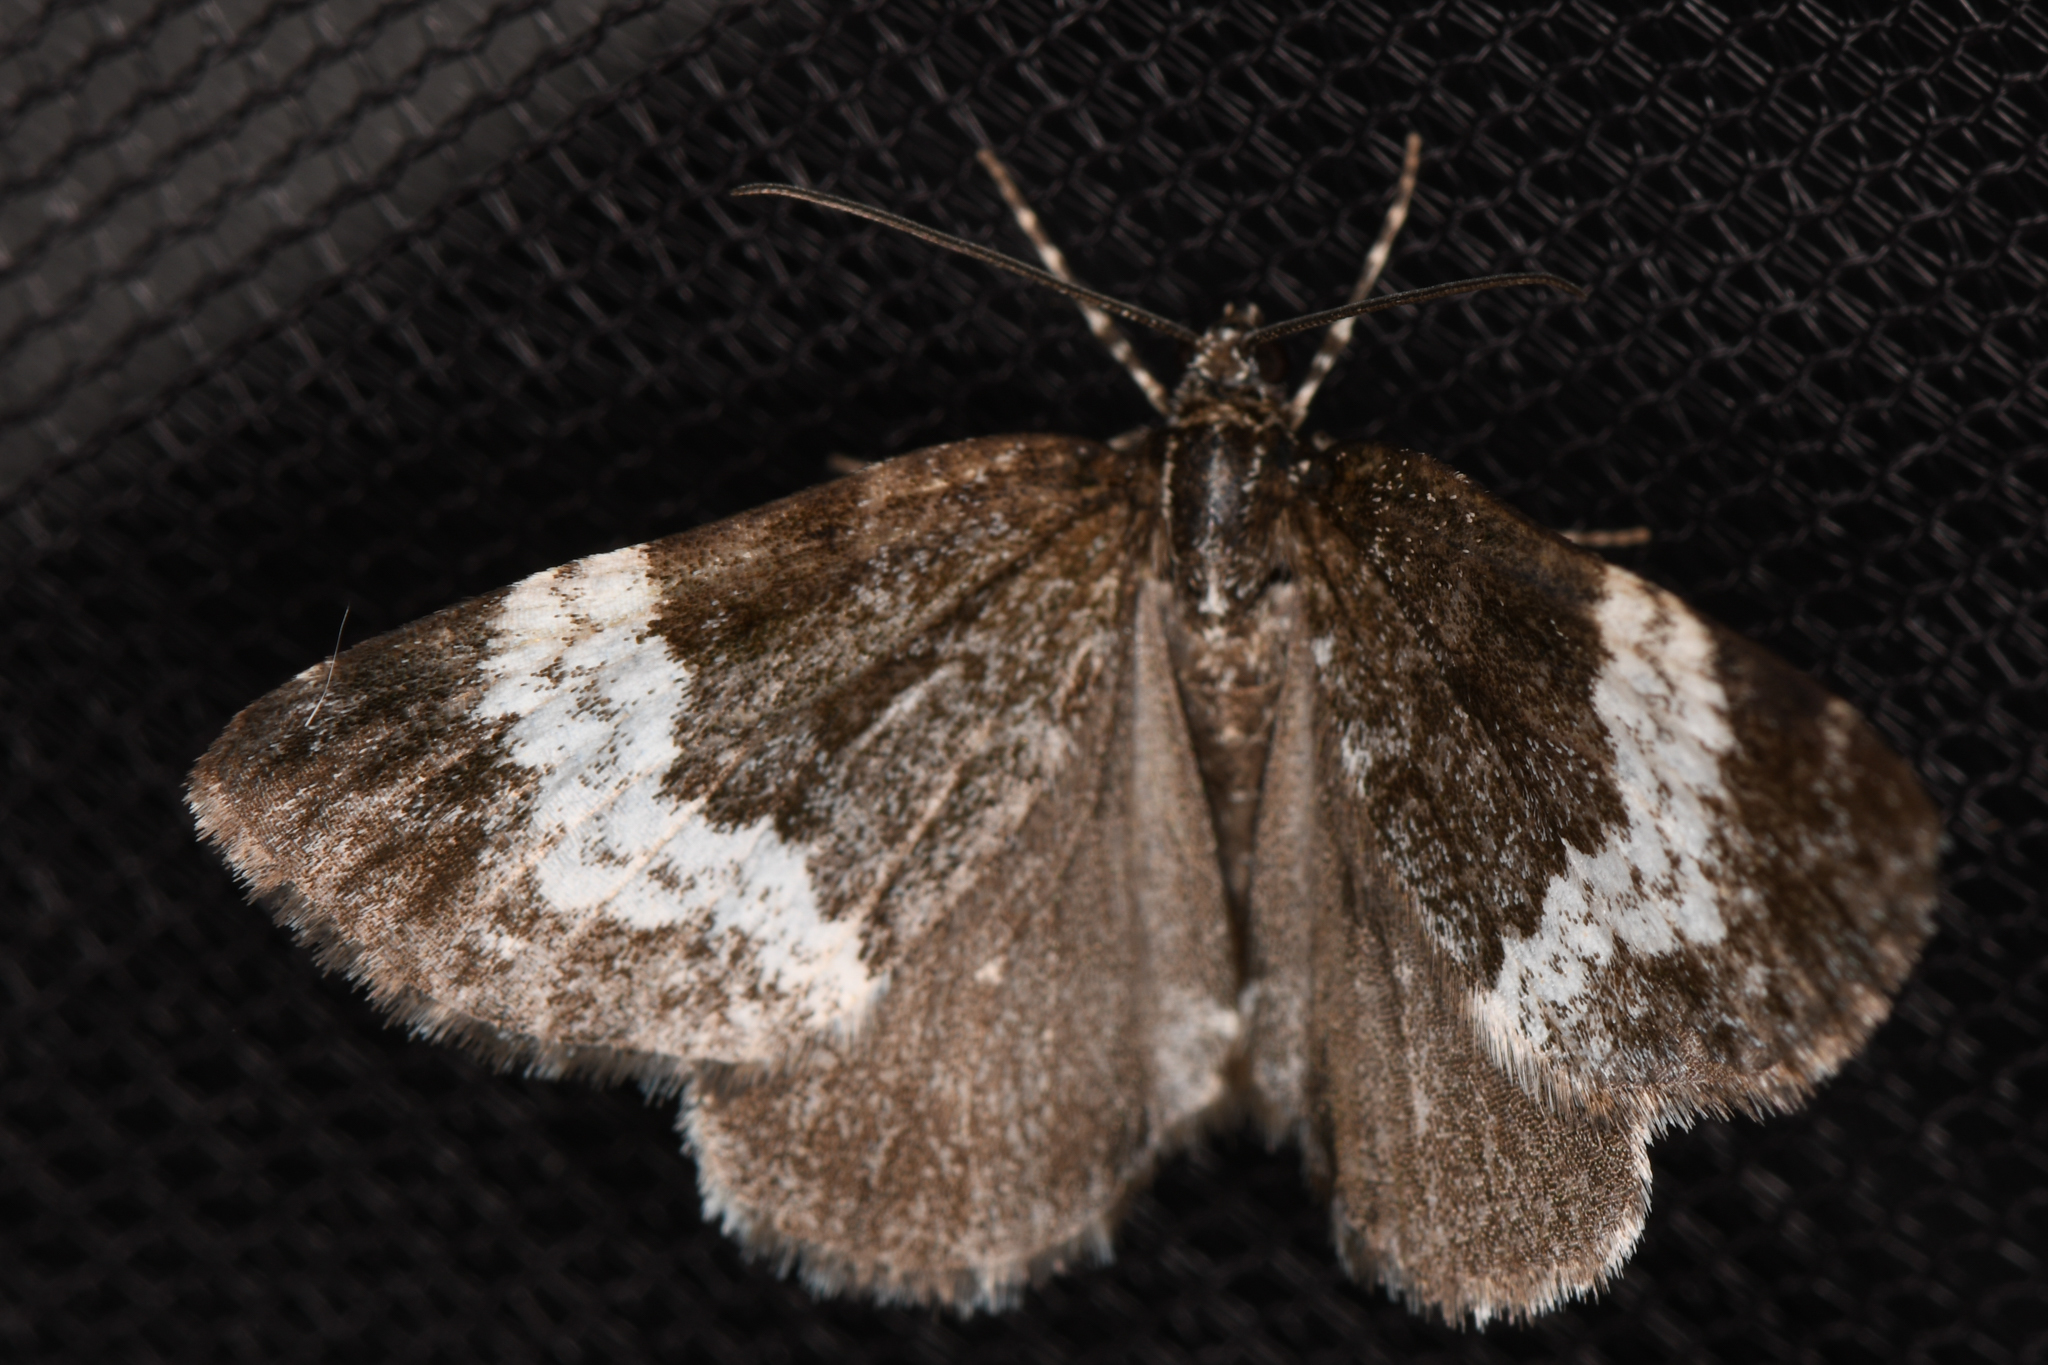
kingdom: Animalia
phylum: Arthropoda
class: Insecta
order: Lepidoptera
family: Geometridae
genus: Spargania
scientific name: Spargania luctuata
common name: White-banded carpet
